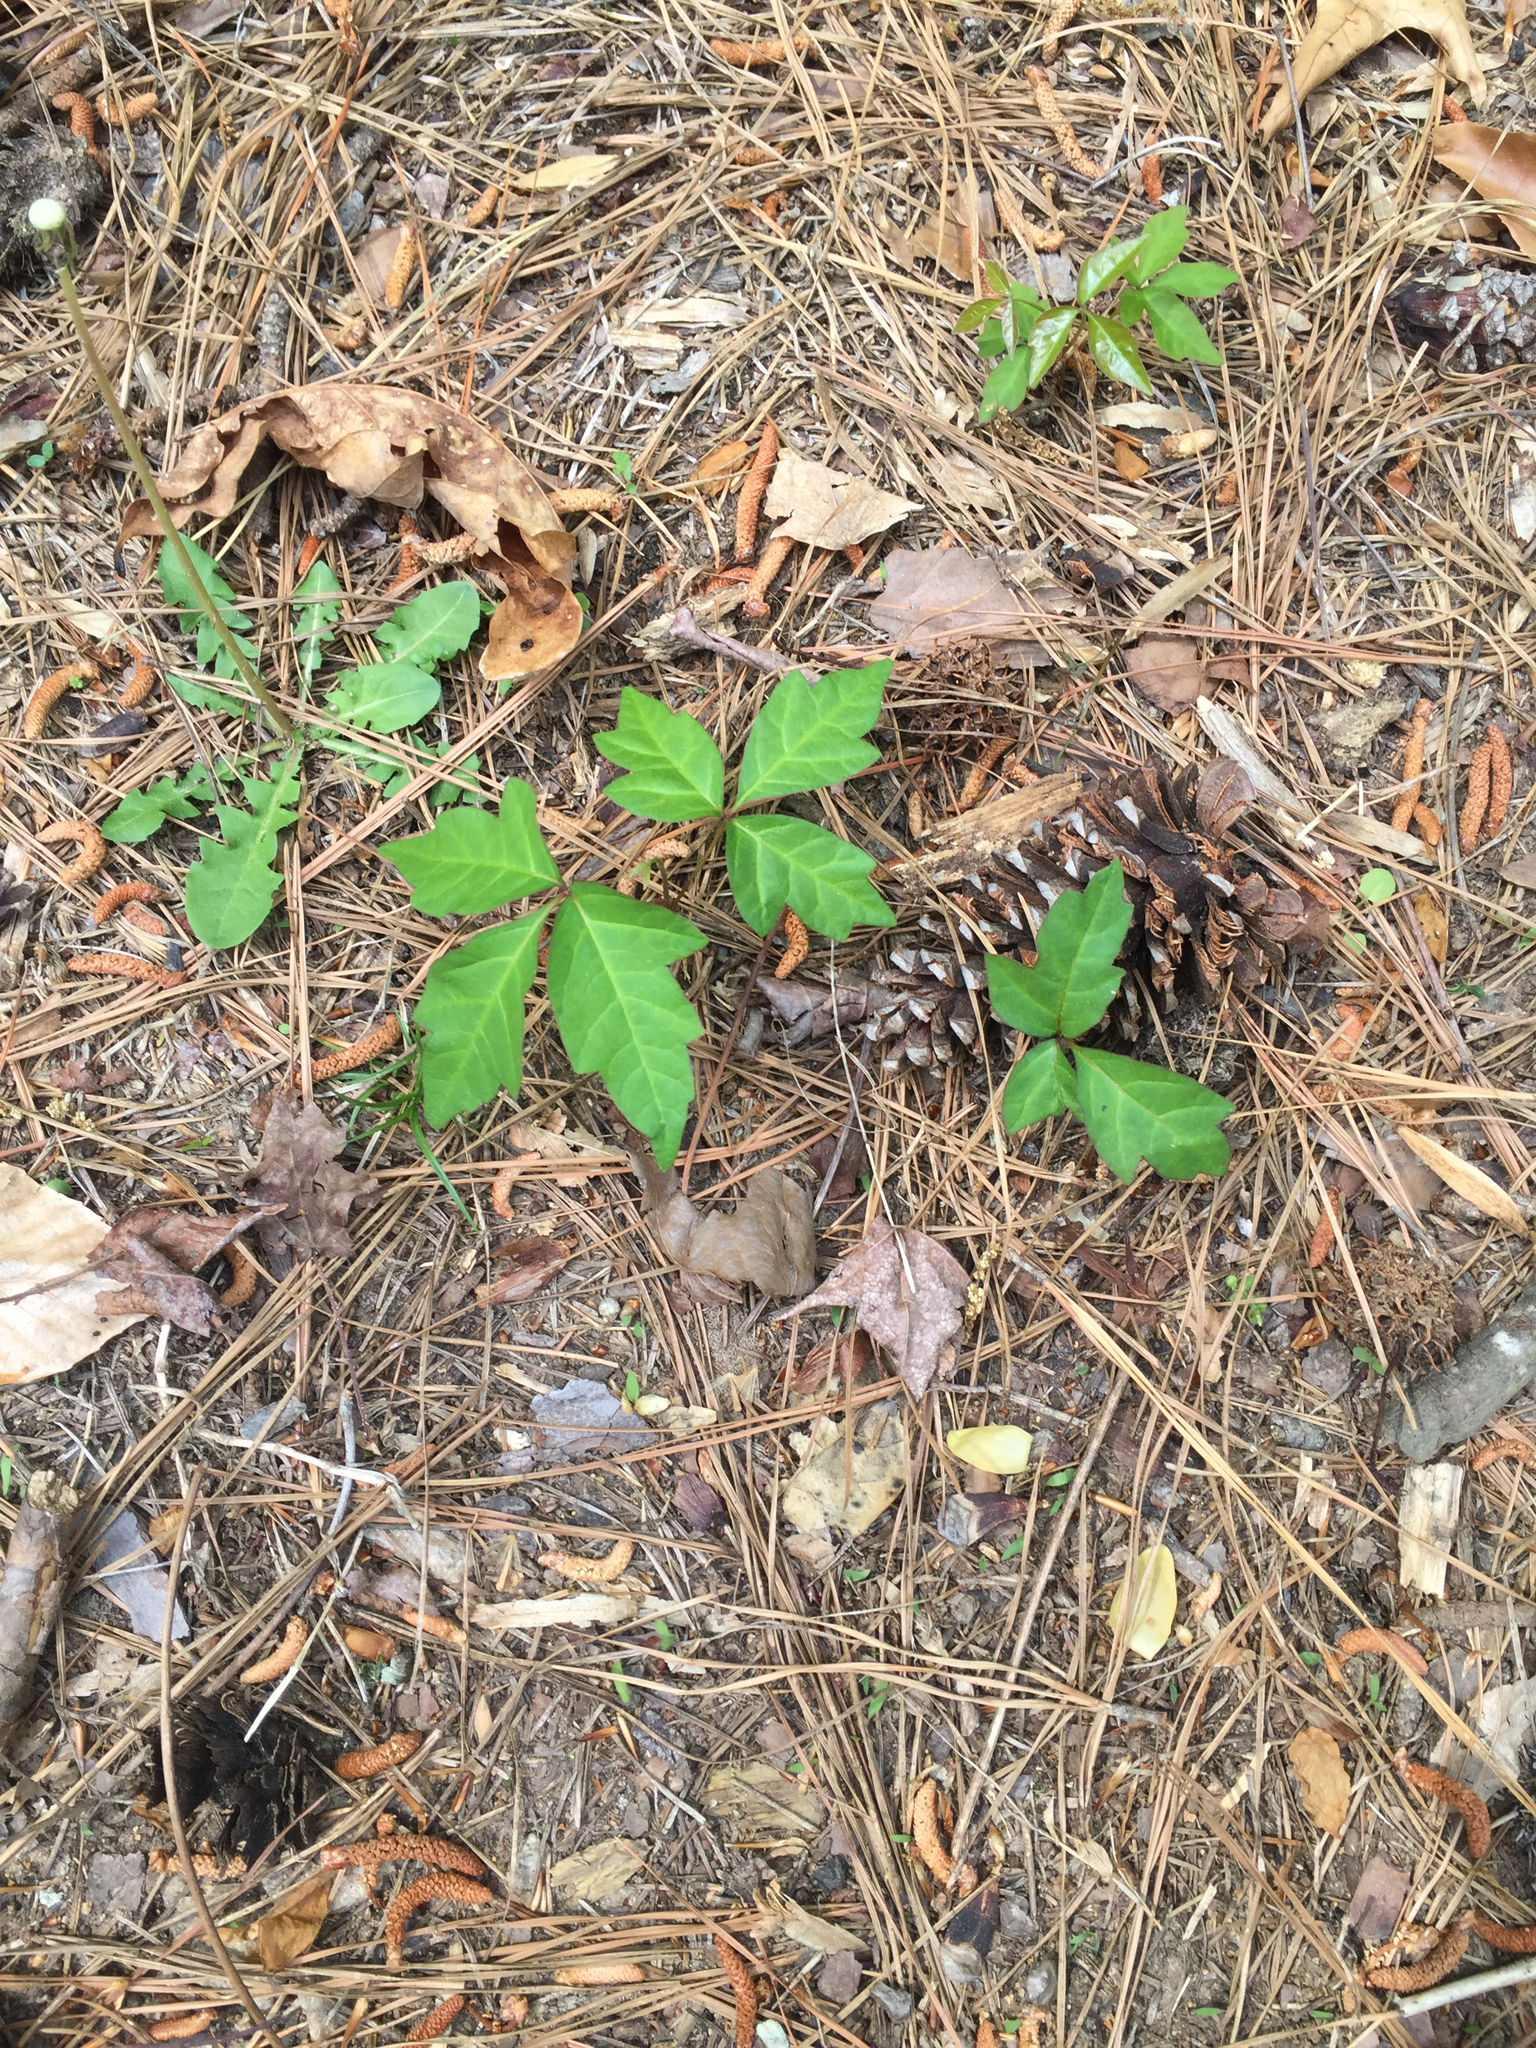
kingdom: Plantae
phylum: Tracheophyta
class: Magnoliopsida
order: Sapindales
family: Anacardiaceae
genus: Toxicodendron
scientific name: Toxicodendron radicans
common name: Poison ivy
